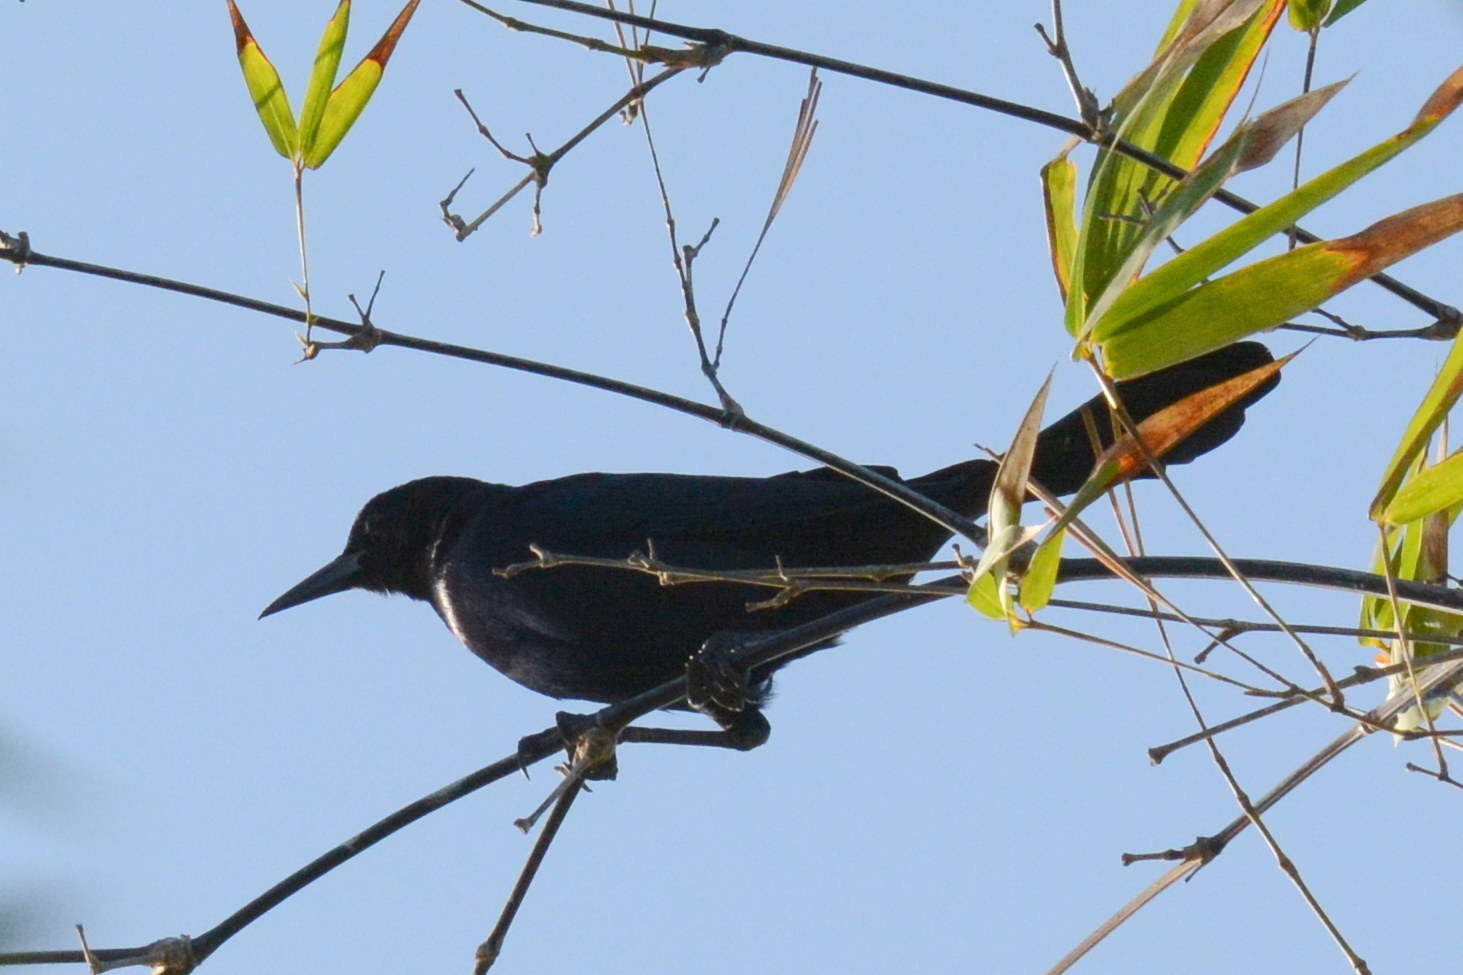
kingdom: Animalia
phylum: Chordata
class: Aves
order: Passeriformes
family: Icteridae
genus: Quiscalus
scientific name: Quiscalus major
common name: Boat-tailed grackle
